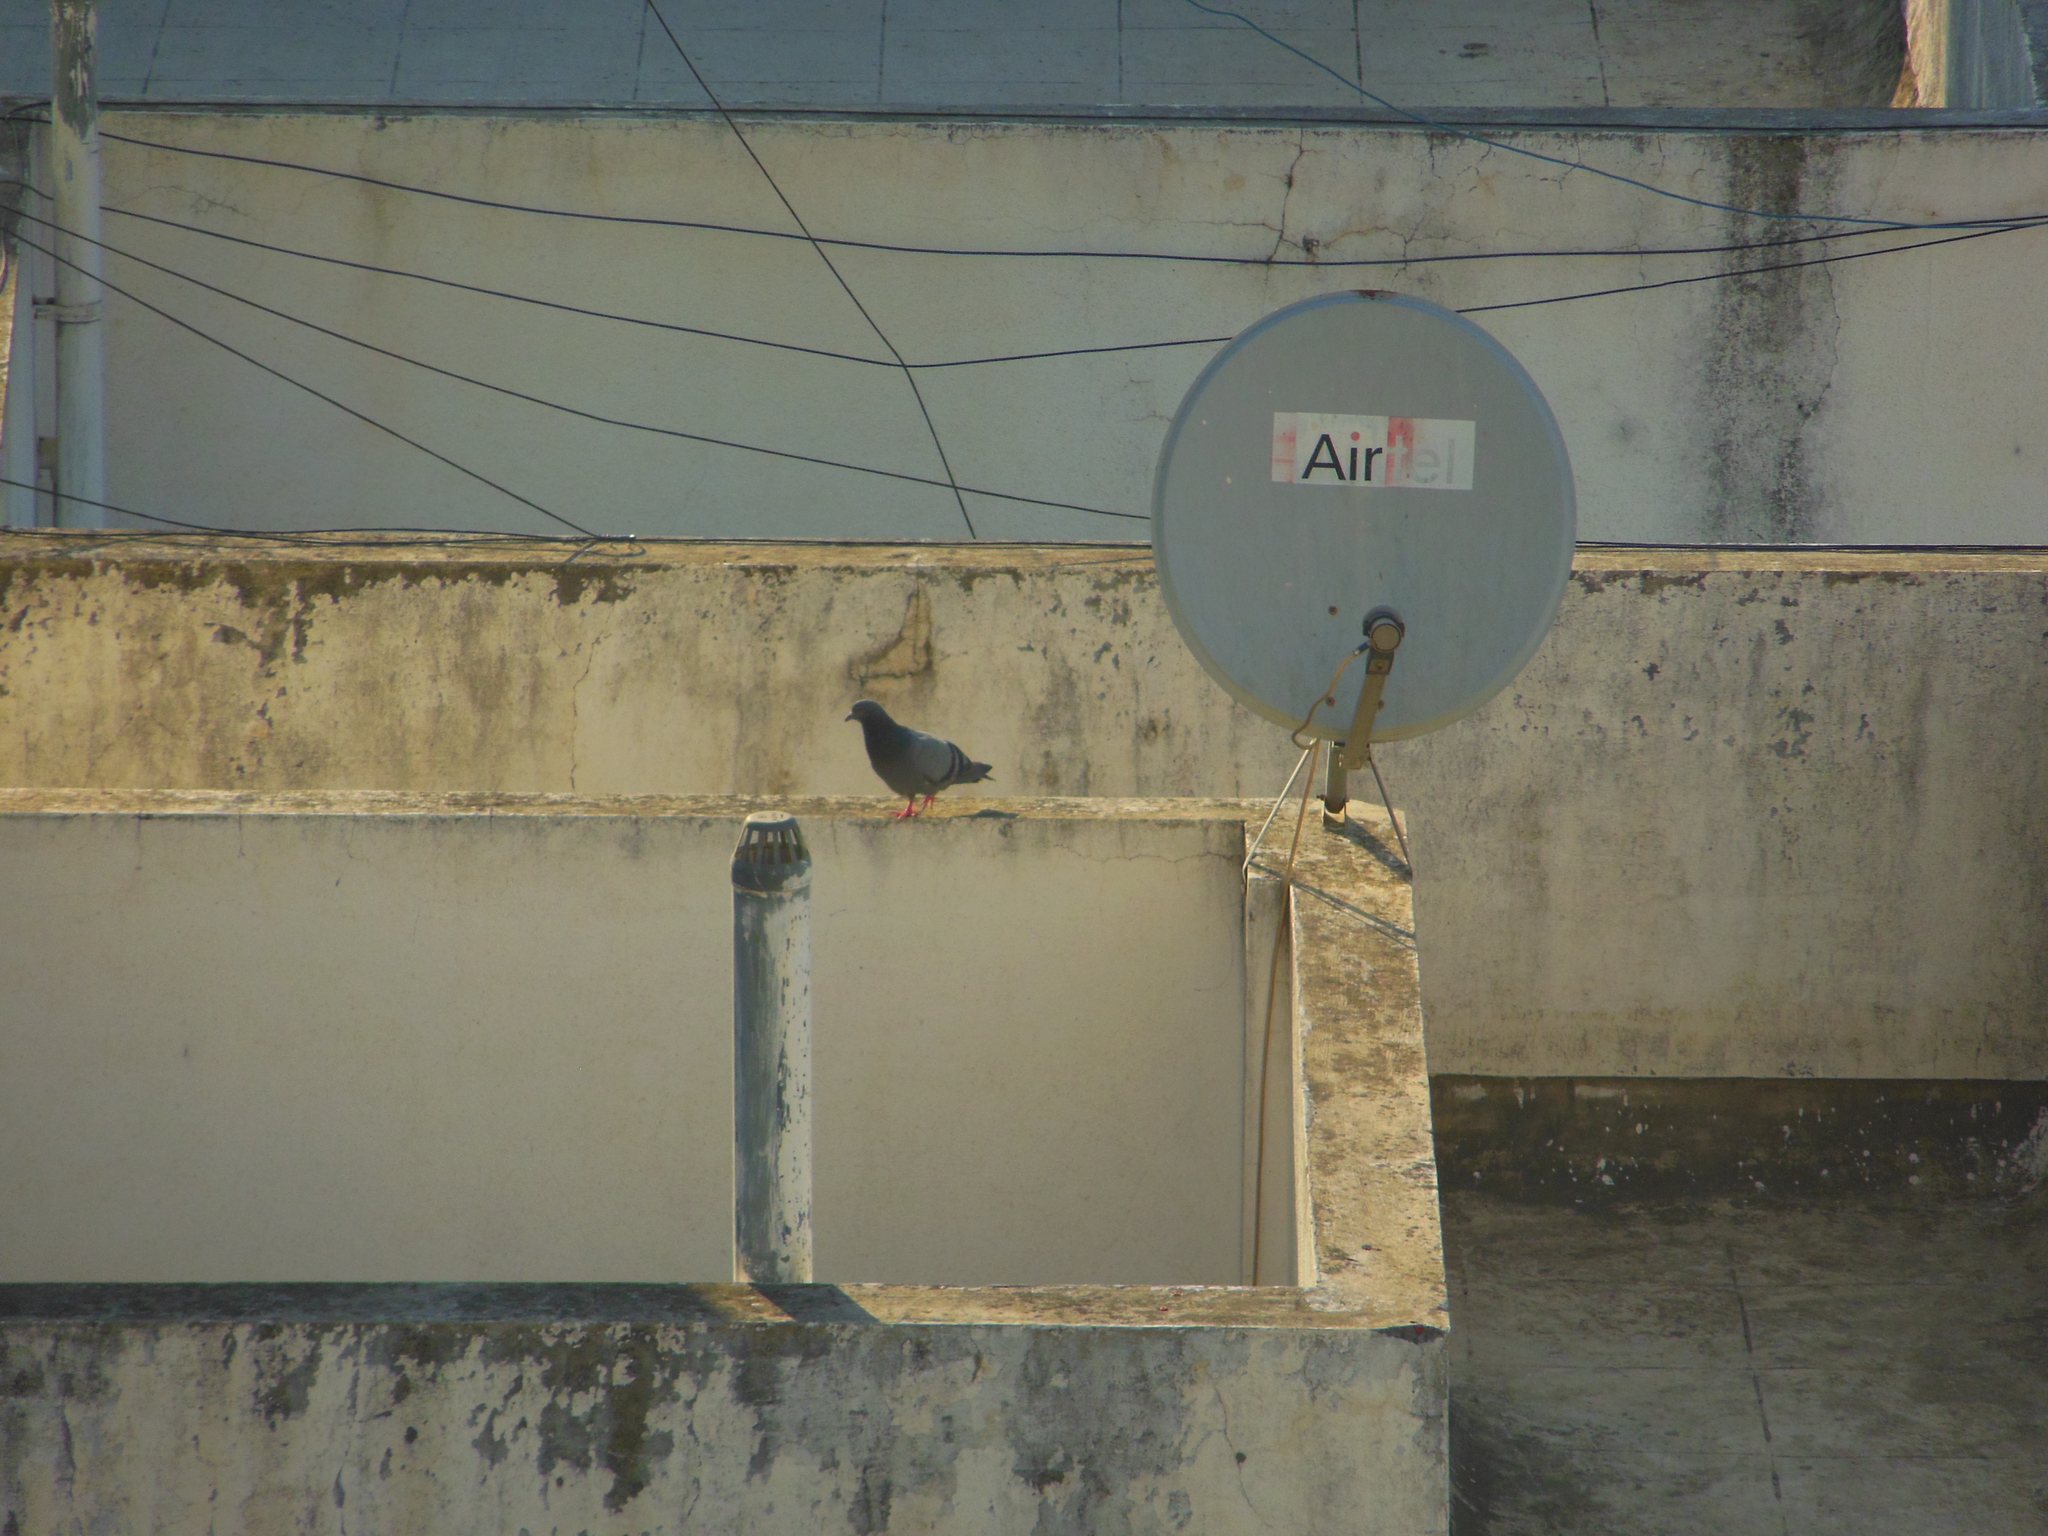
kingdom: Animalia
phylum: Chordata
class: Aves
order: Columbiformes
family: Columbidae
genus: Columba
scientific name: Columba livia
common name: Rock pigeon
